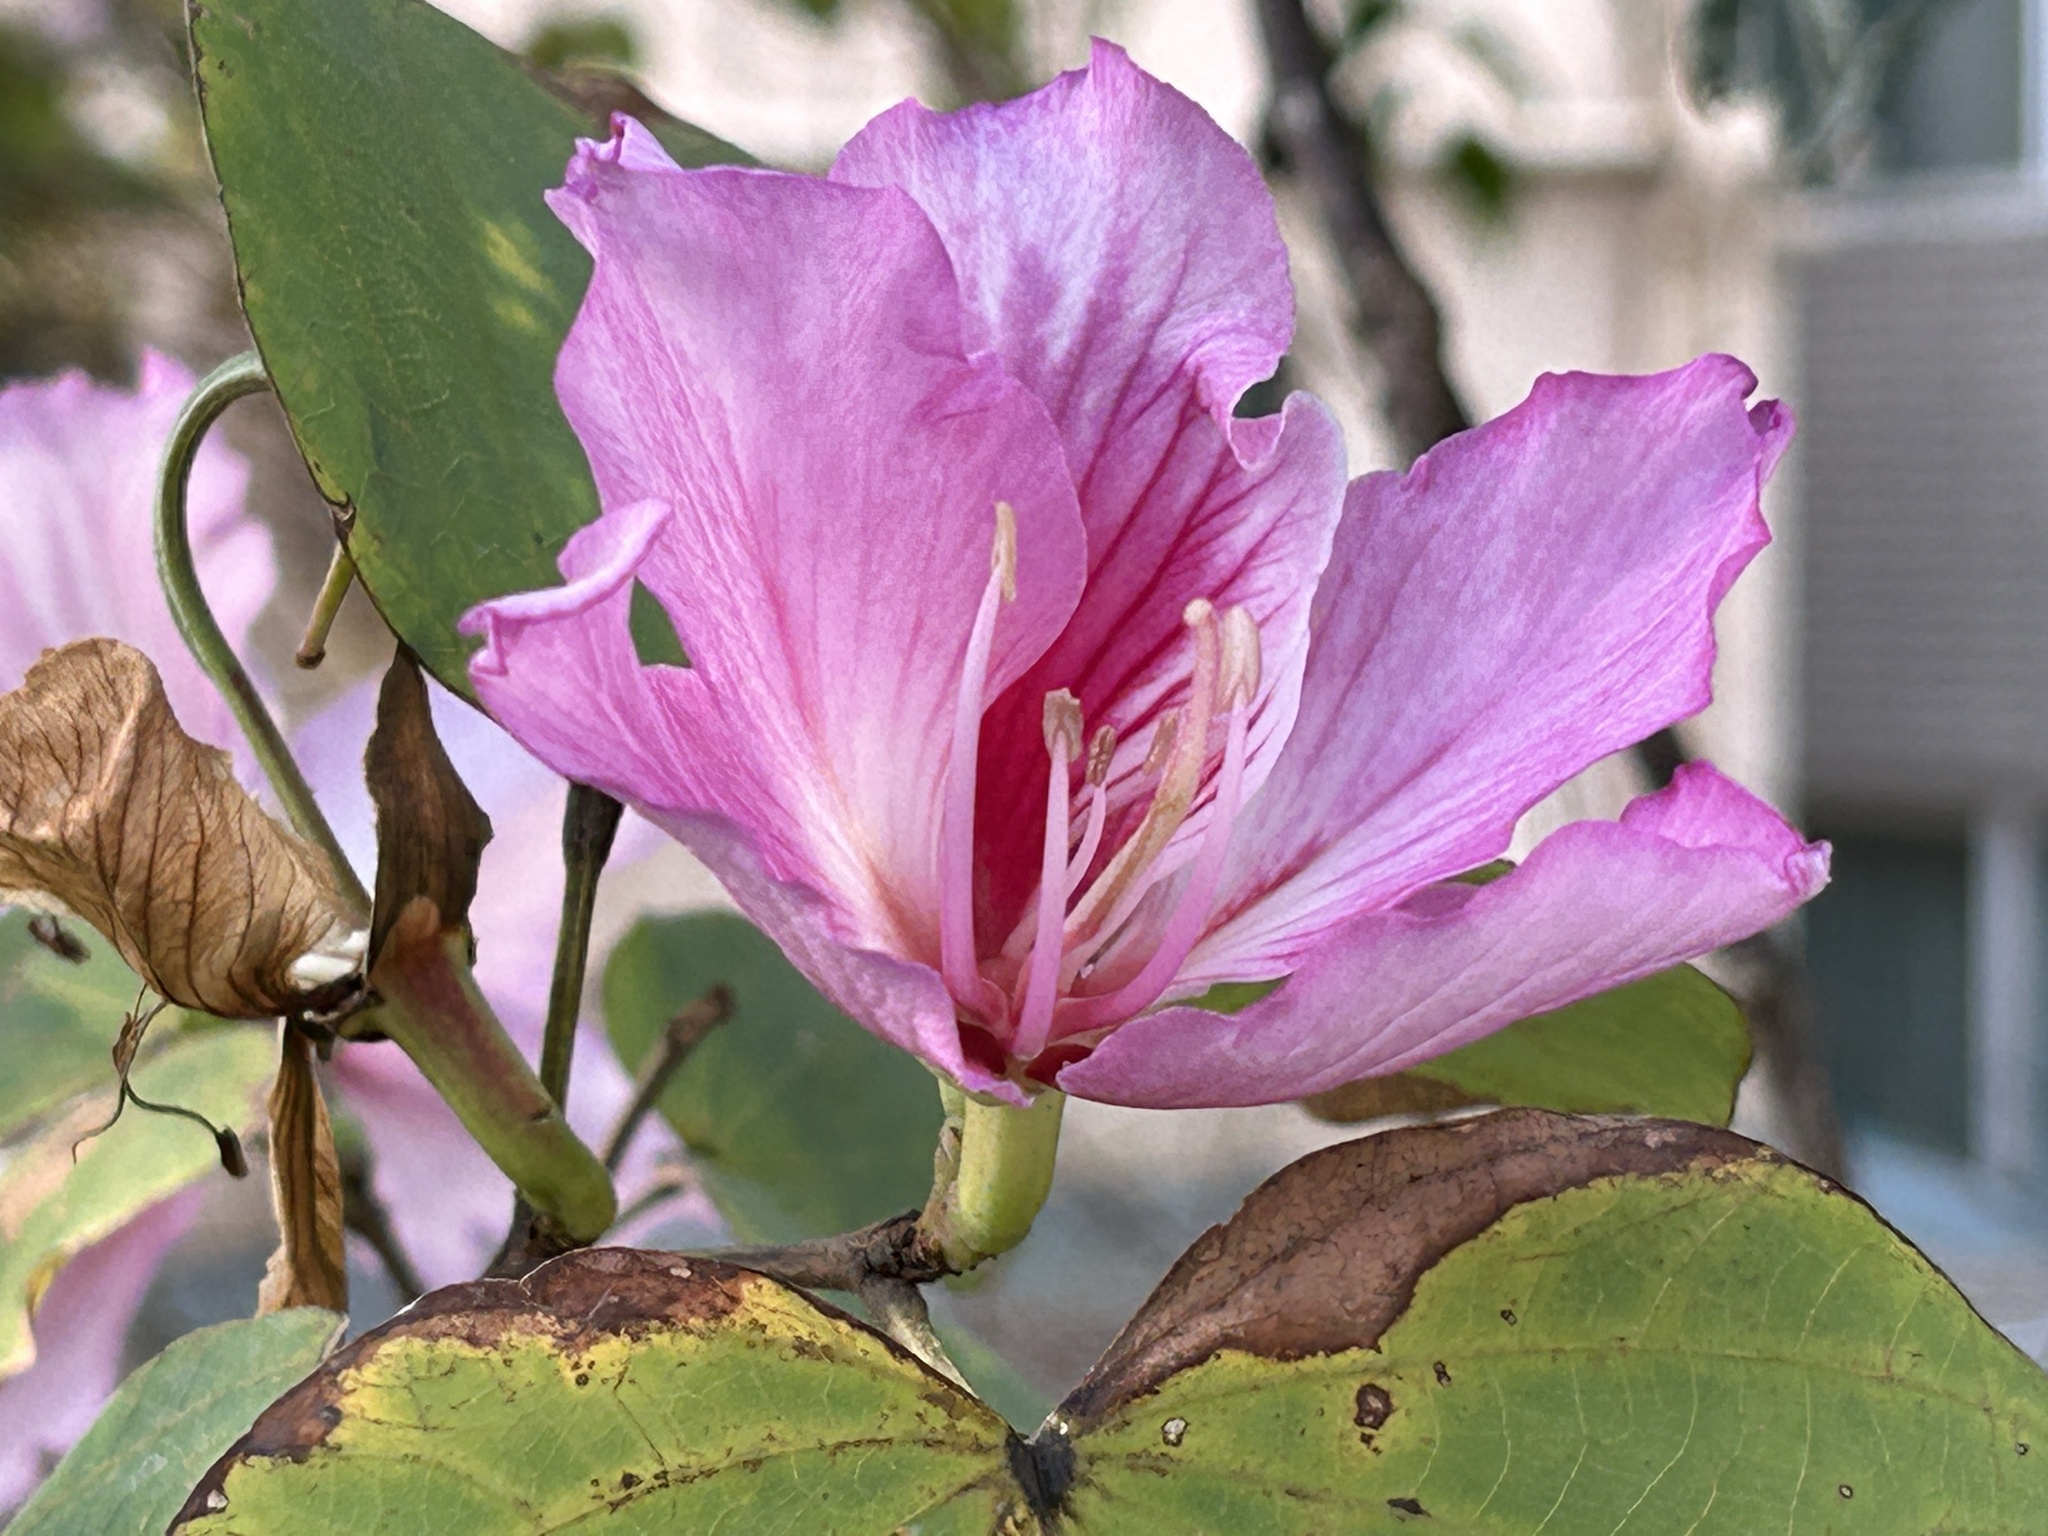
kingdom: Plantae
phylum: Tracheophyta
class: Magnoliopsida
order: Fabales
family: Fabaceae
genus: Bauhinia
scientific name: Bauhinia variegata
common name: Mountain ebony
